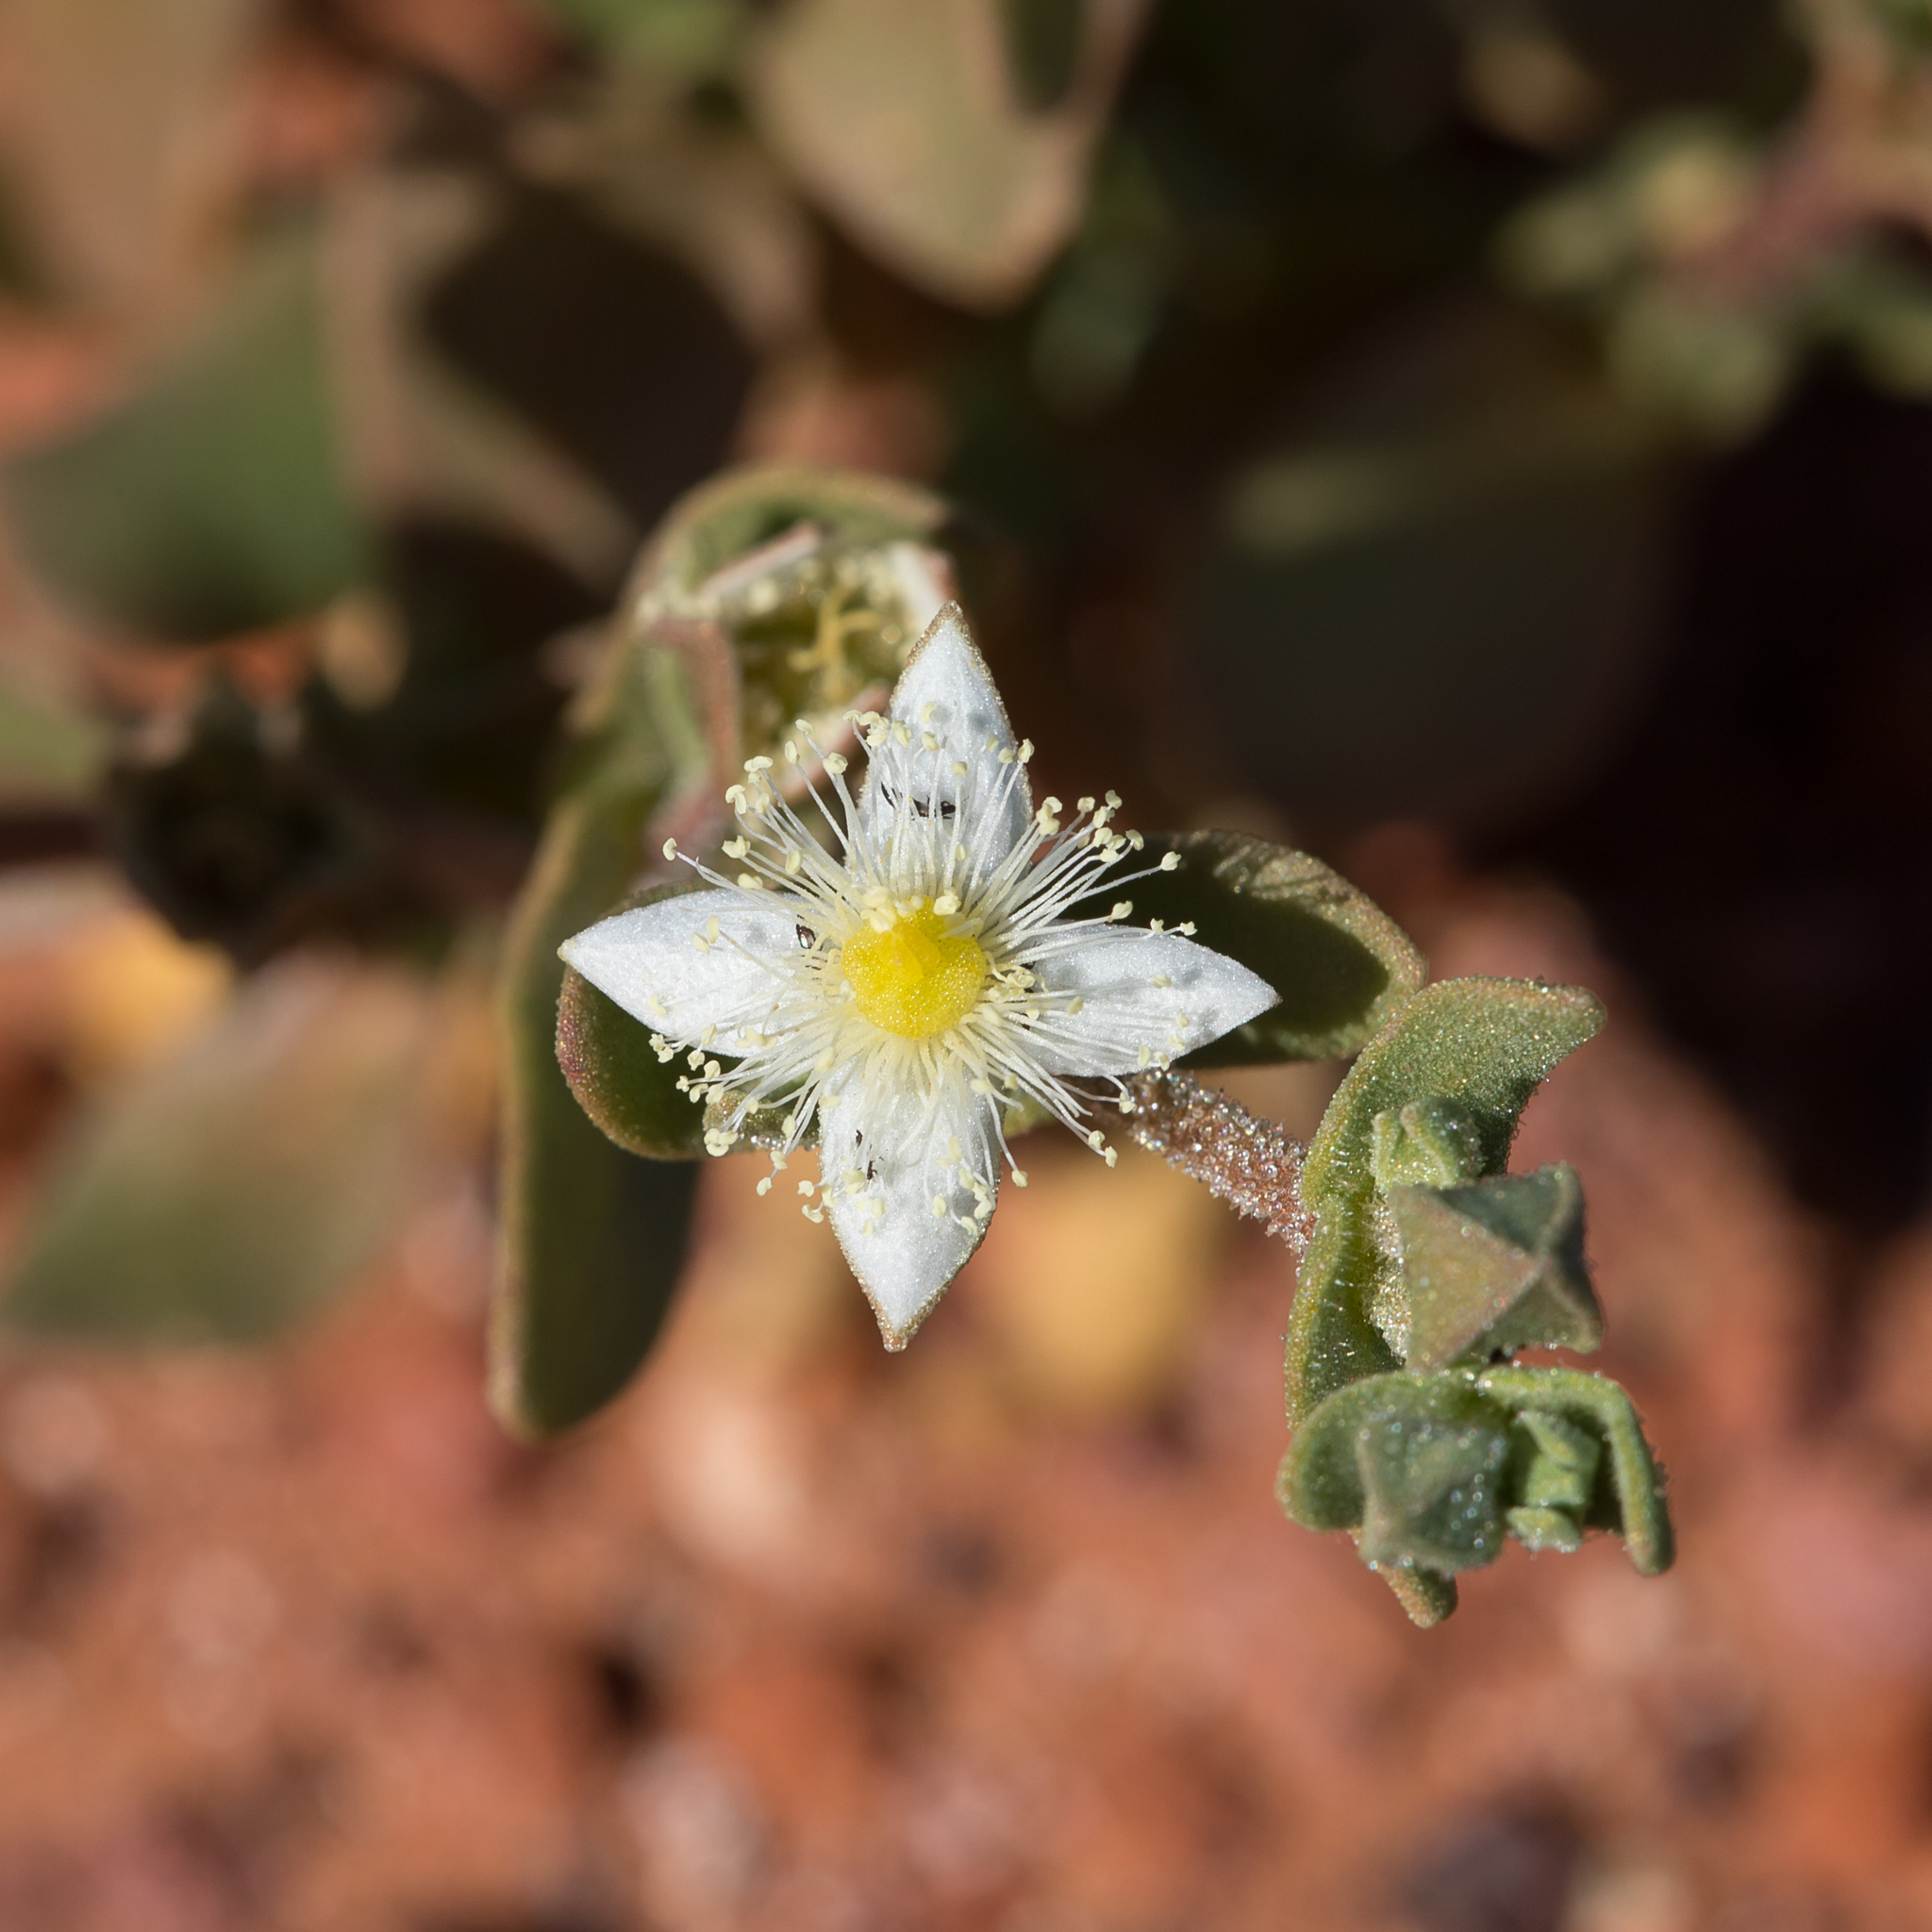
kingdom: Plantae
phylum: Tracheophyta
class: Magnoliopsida
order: Caryophyllales
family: Aizoaceae
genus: Gunniopsis
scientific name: Gunniopsis papillata
